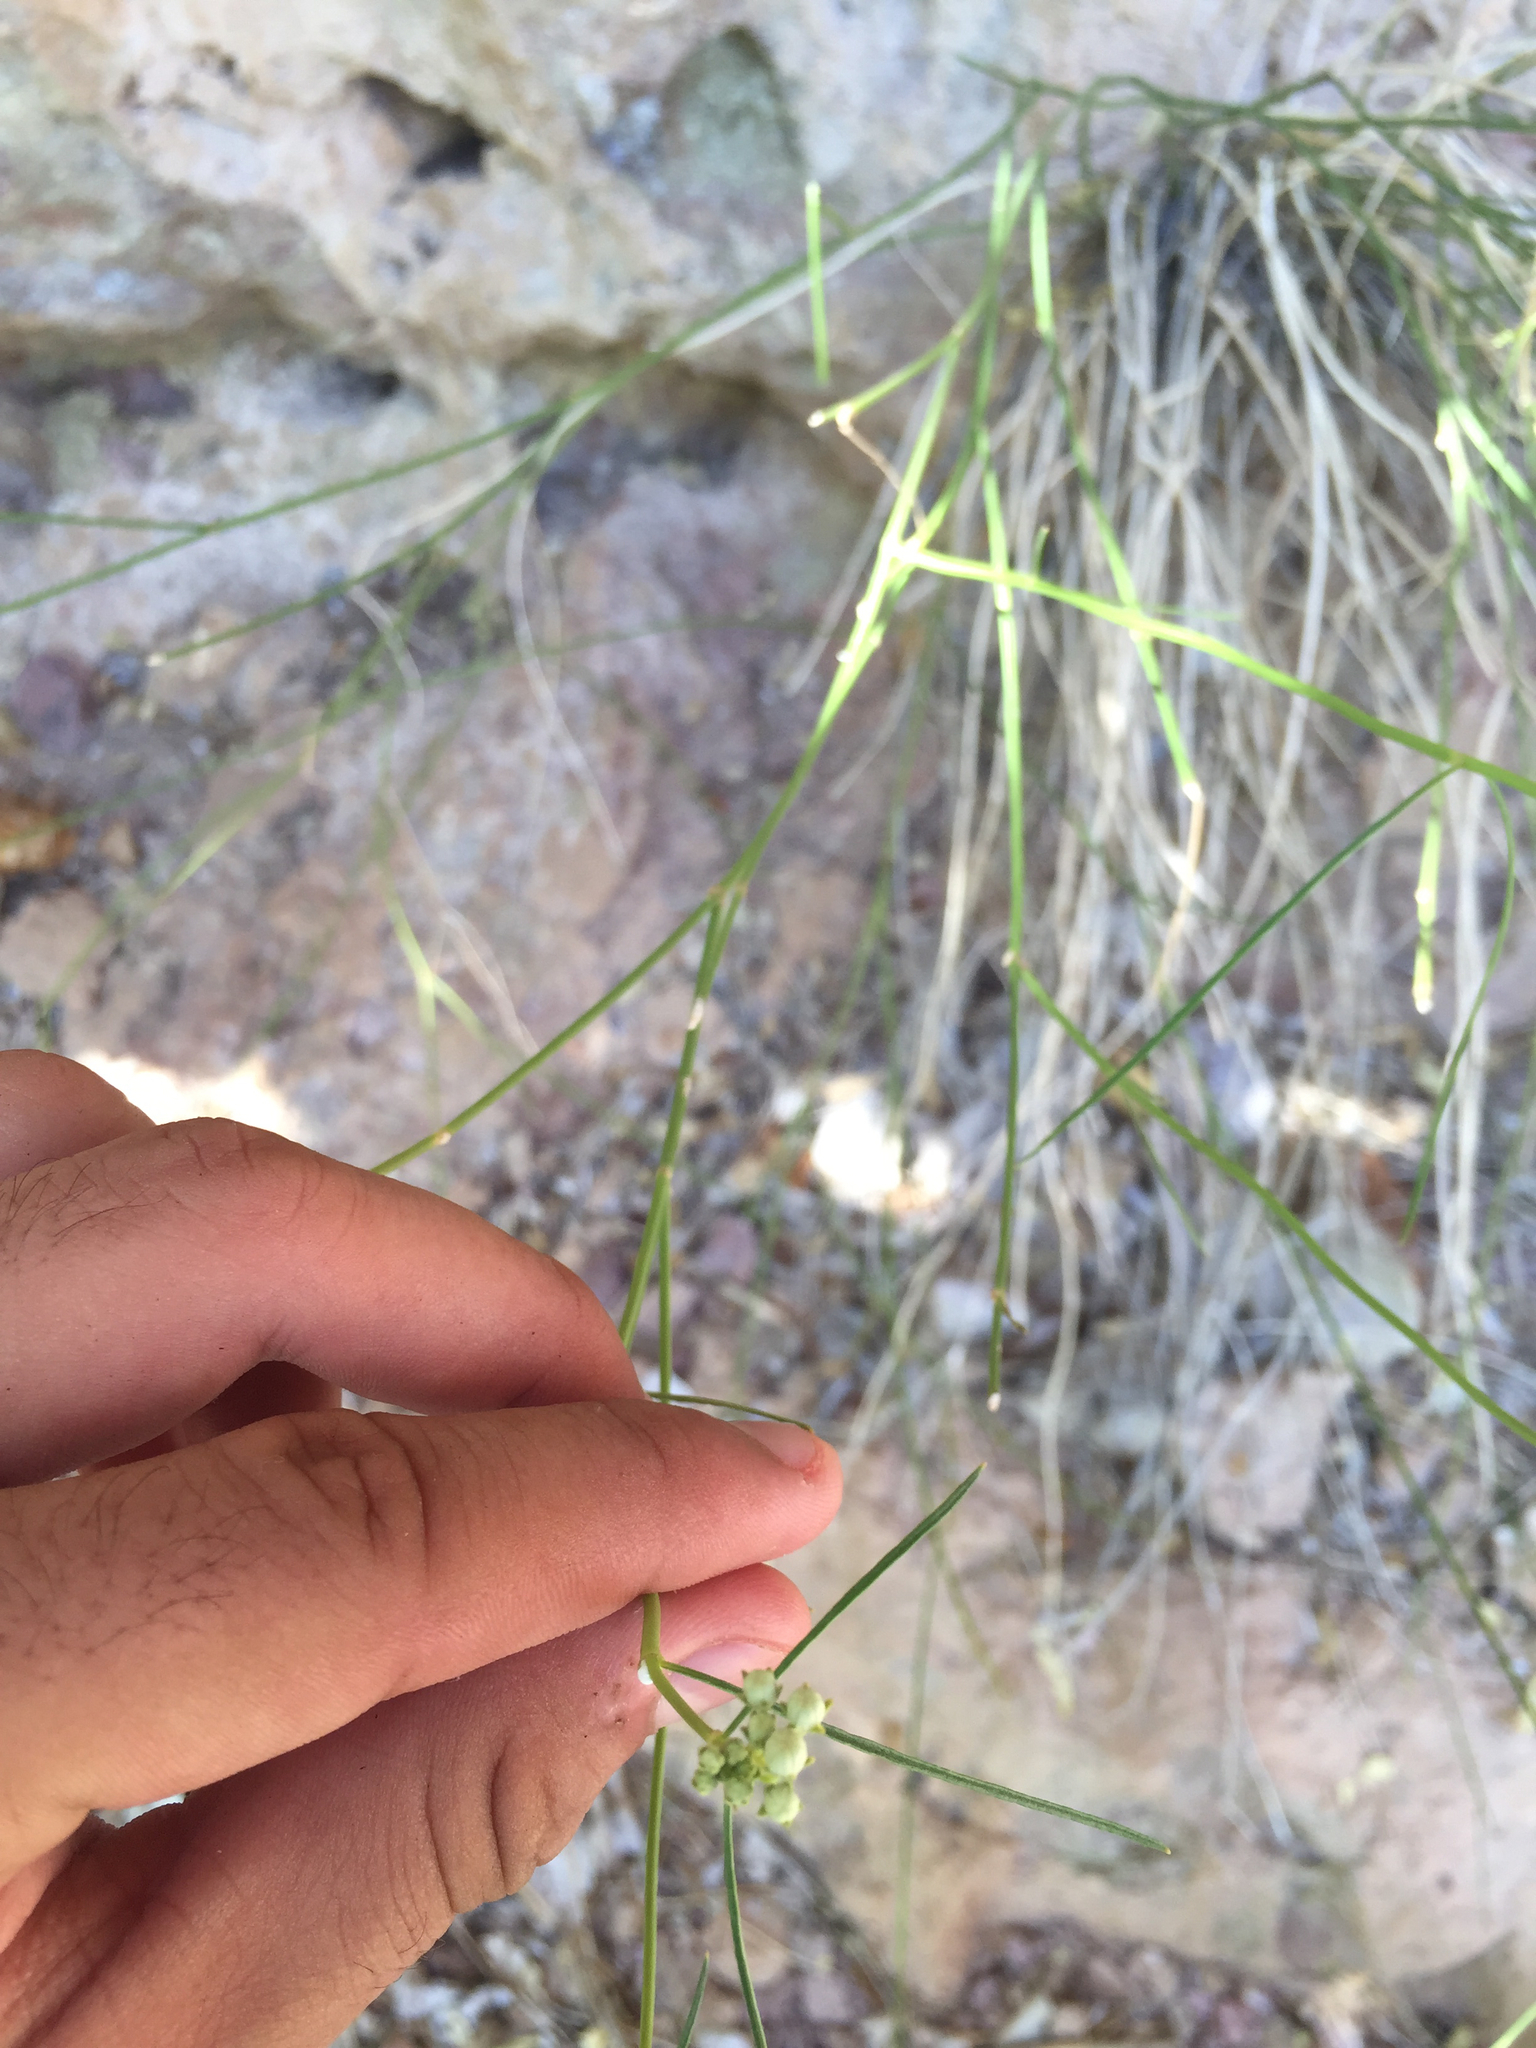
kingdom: Plantae
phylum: Tracheophyta
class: Magnoliopsida
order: Gentianales
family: Apocynaceae
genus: Asclepias
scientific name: Asclepias leptopus
